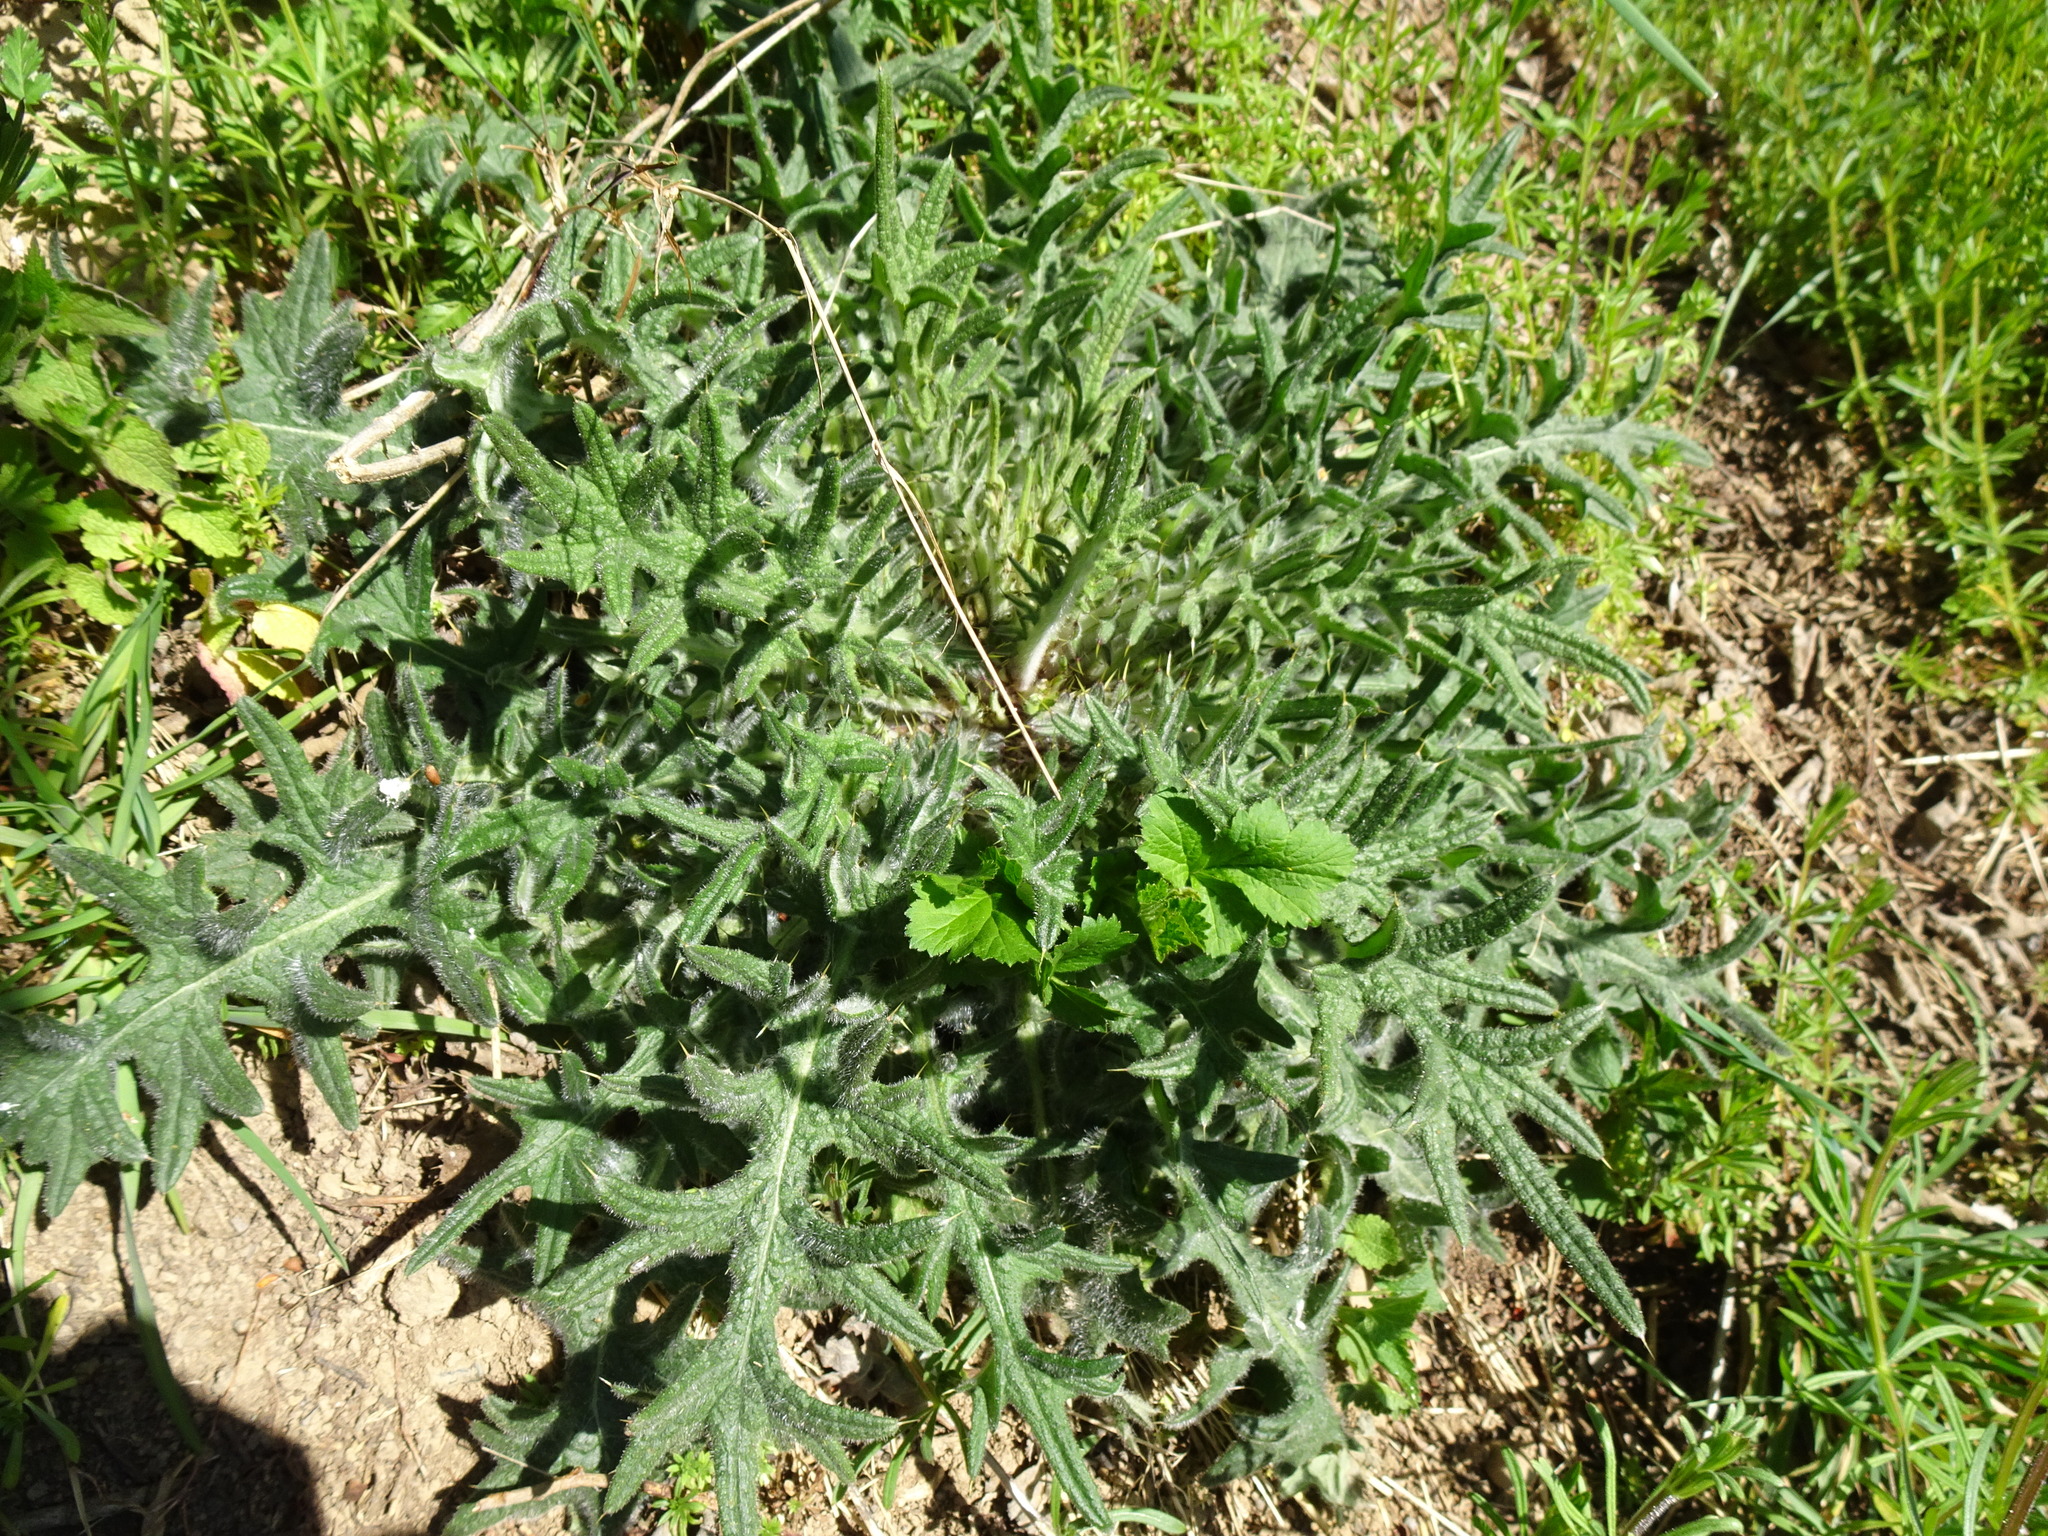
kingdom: Plantae
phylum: Tracheophyta
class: Magnoliopsida
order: Asterales
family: Asteraceae
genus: Cirsium
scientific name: Cirsium vulgare
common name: Bull thistle
